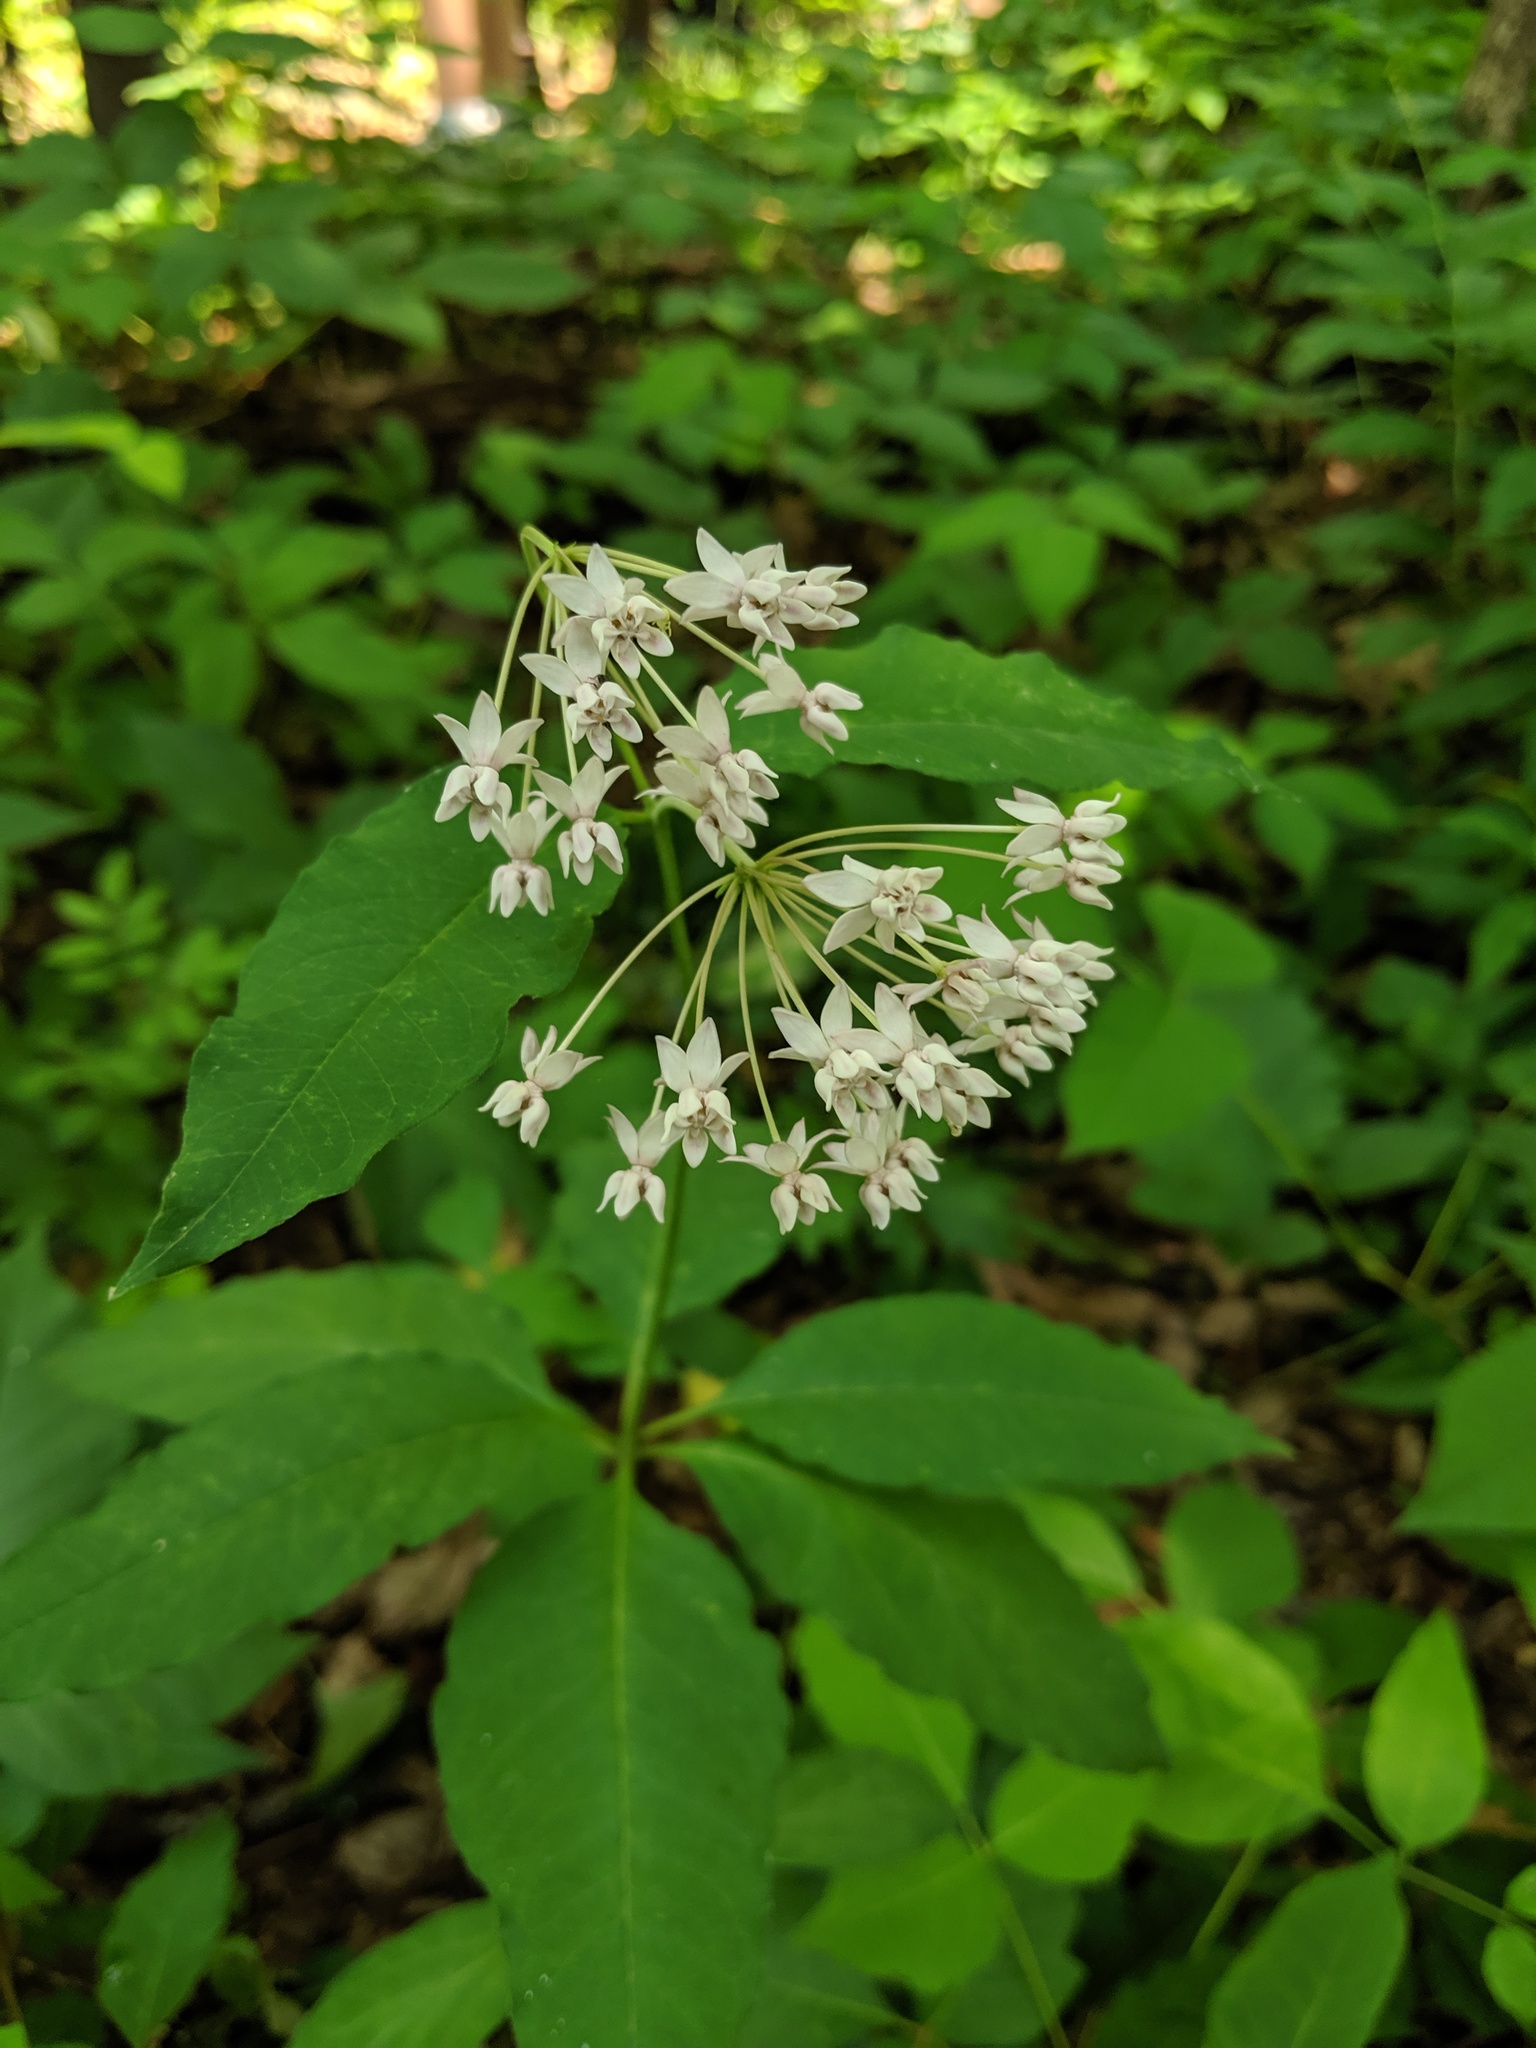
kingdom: Plantae
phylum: Tracheophyta
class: Magnoliopsida
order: Gentianales
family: Apocynaceae
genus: Asclepias
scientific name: Asclepias quadrifolia
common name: Whorled milkweed
